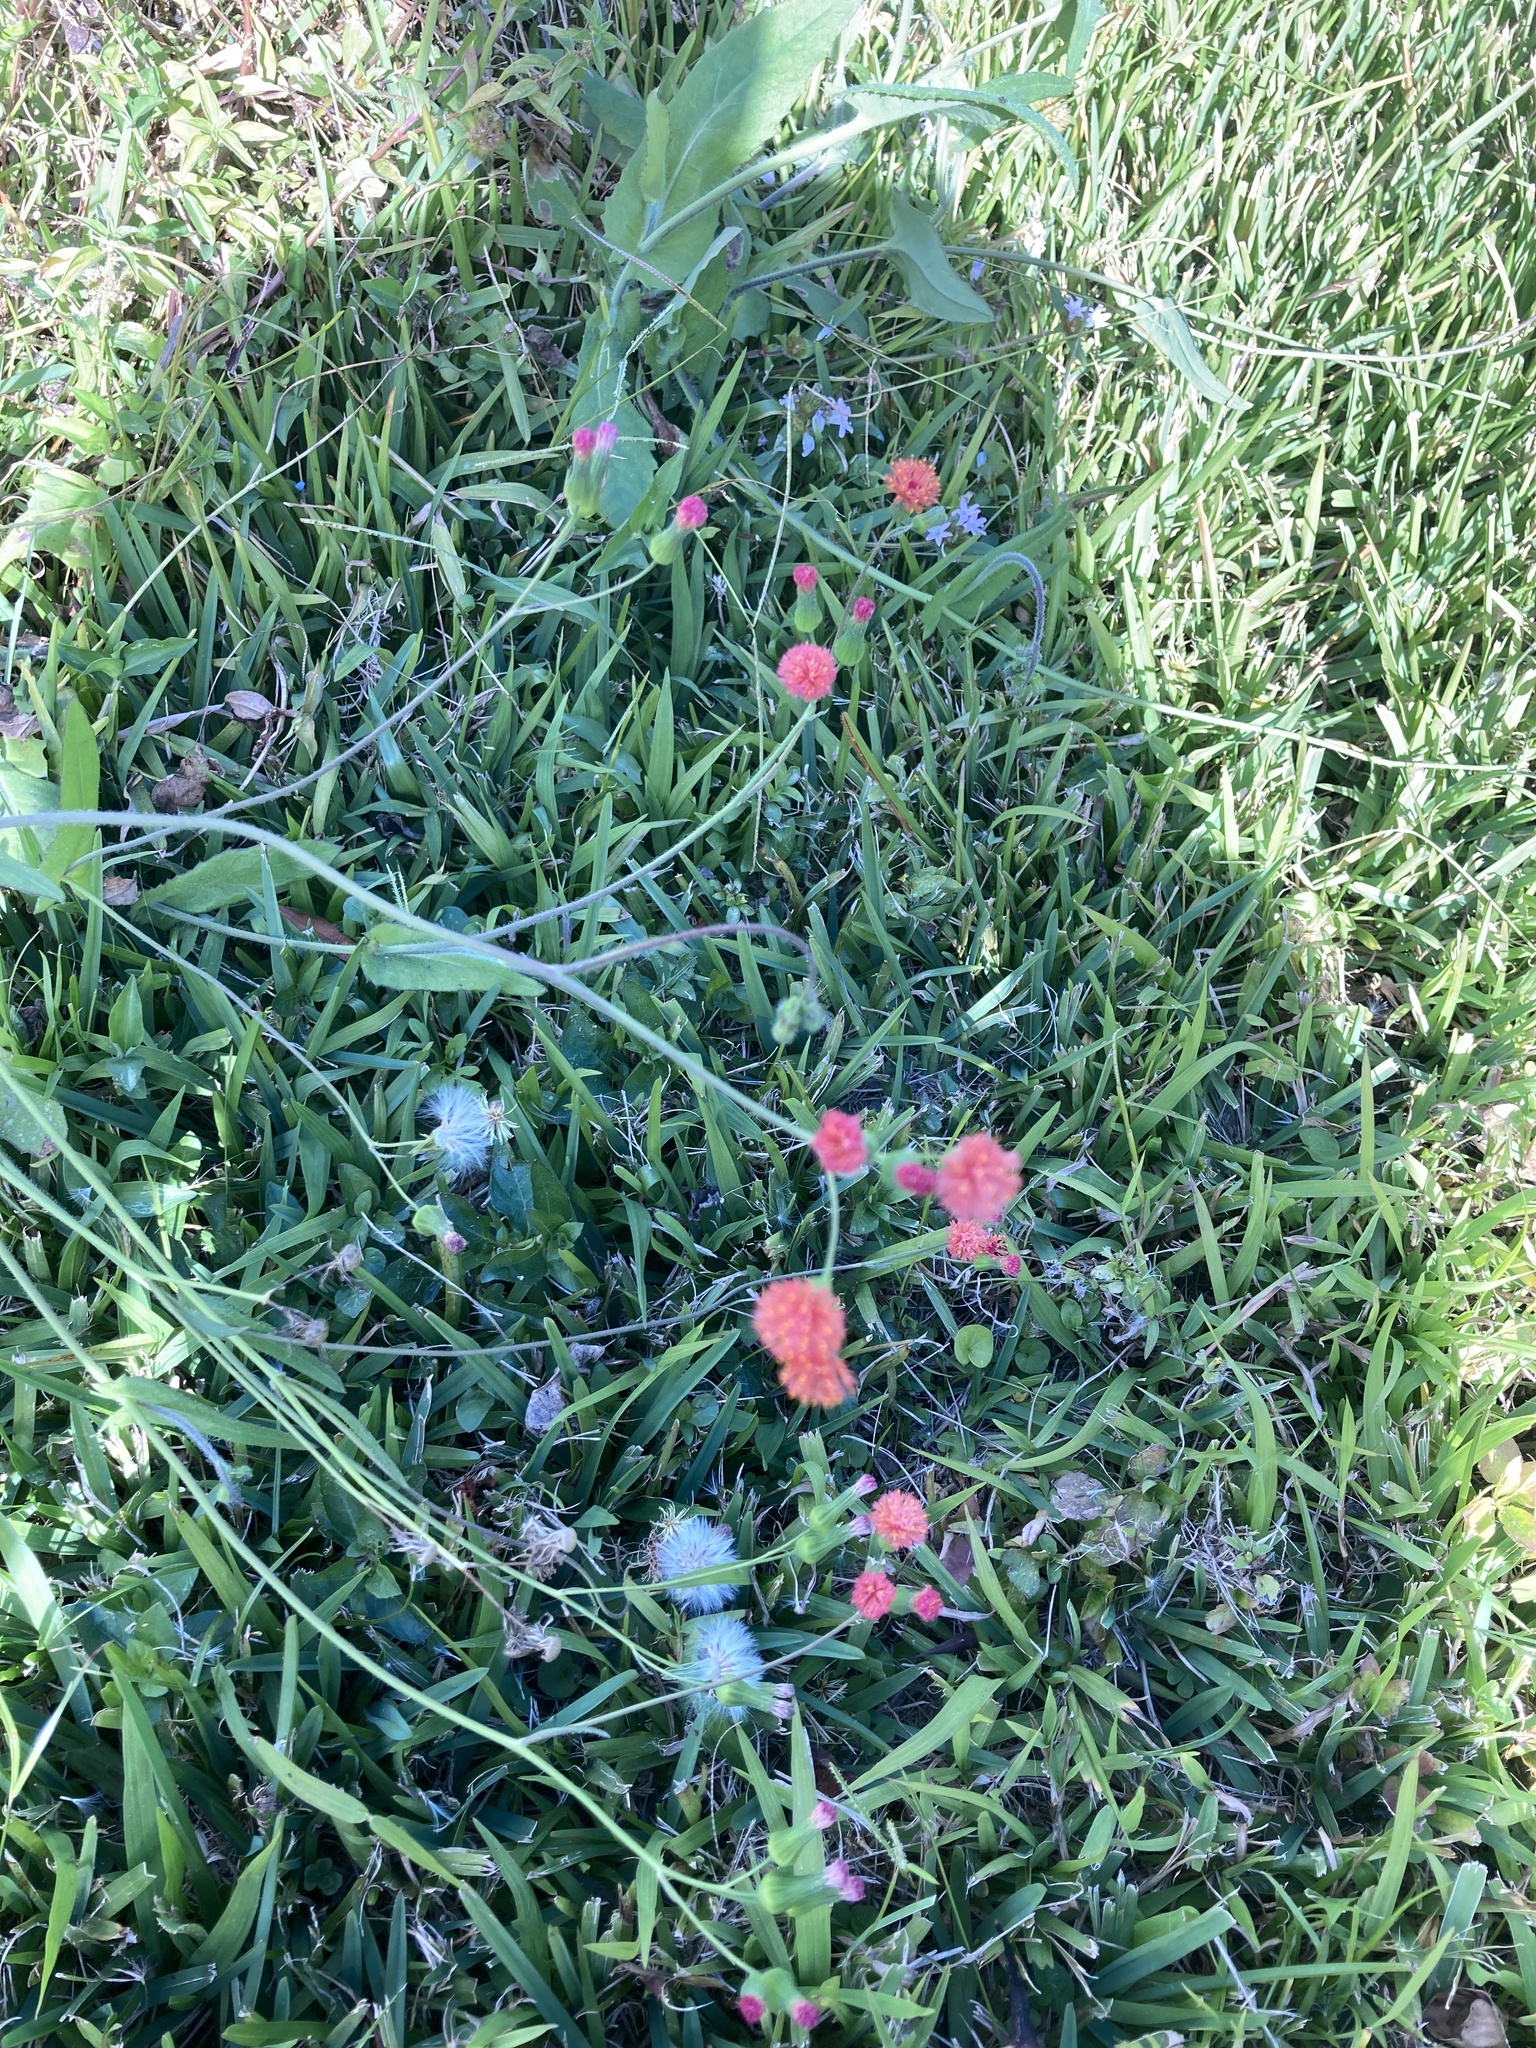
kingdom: Plantae
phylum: Tracheophyta
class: Magnoliopsida
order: Asterales
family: Asteraceae
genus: Emilia
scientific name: Emilia fosbergii
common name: Florida tasselflower
